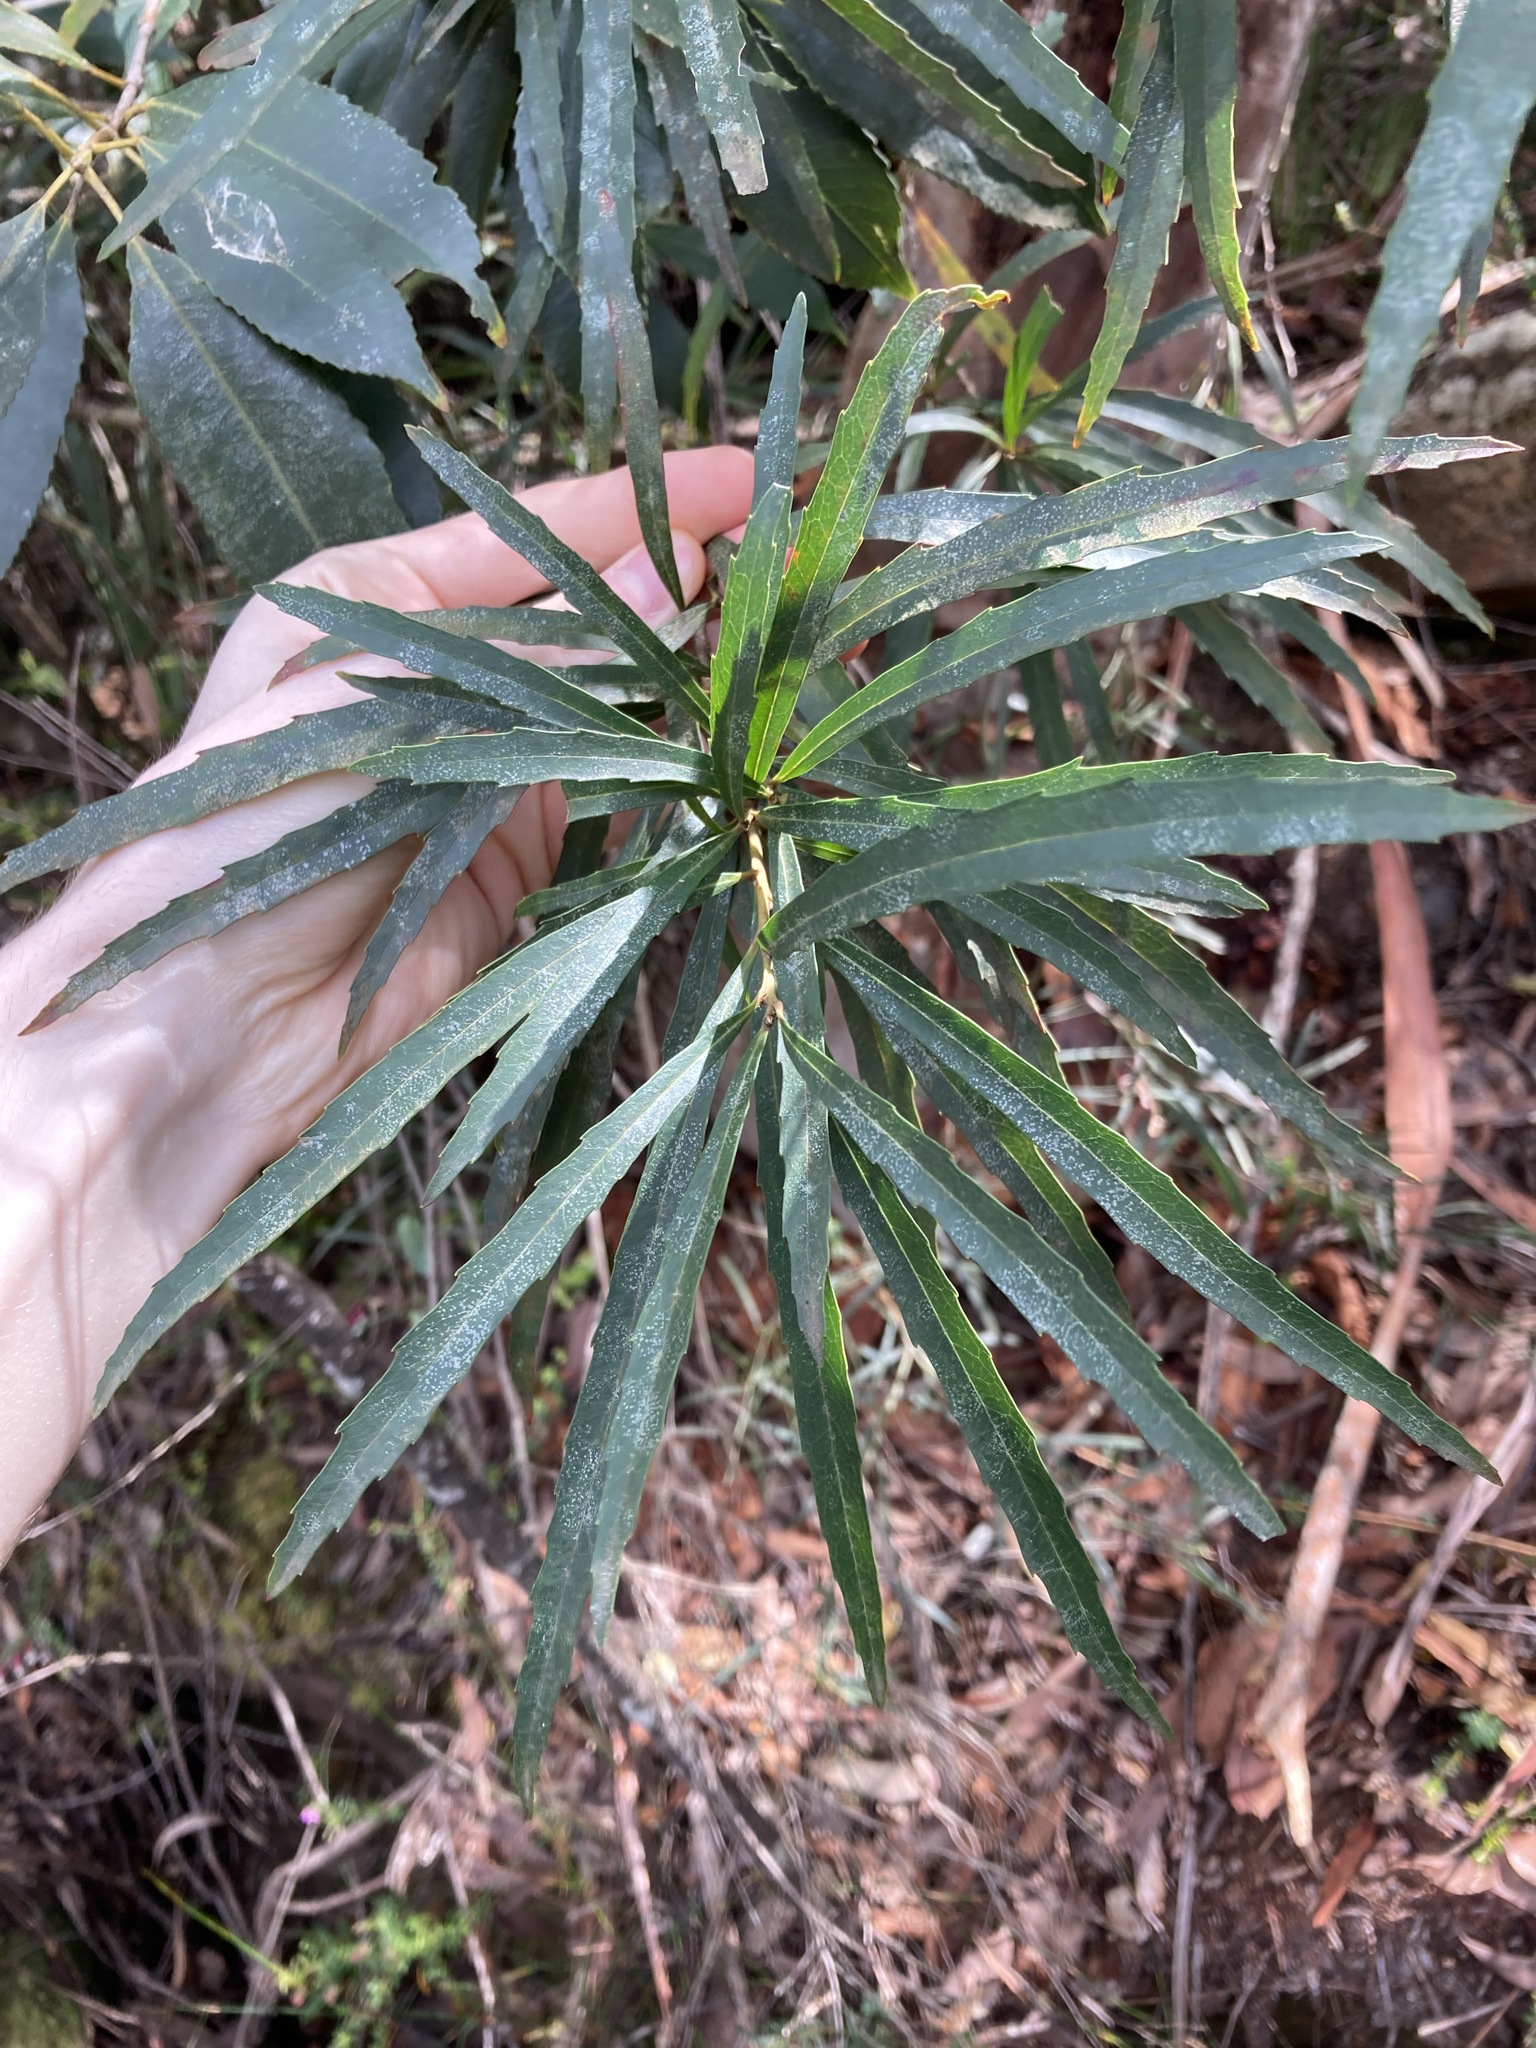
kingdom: Plantae
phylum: Tracheophyta
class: Magnoliopsida
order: Proteales
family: Proteaceae
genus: Lomatia
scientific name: Lomatia myricoides
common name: Longleaf lomatia
